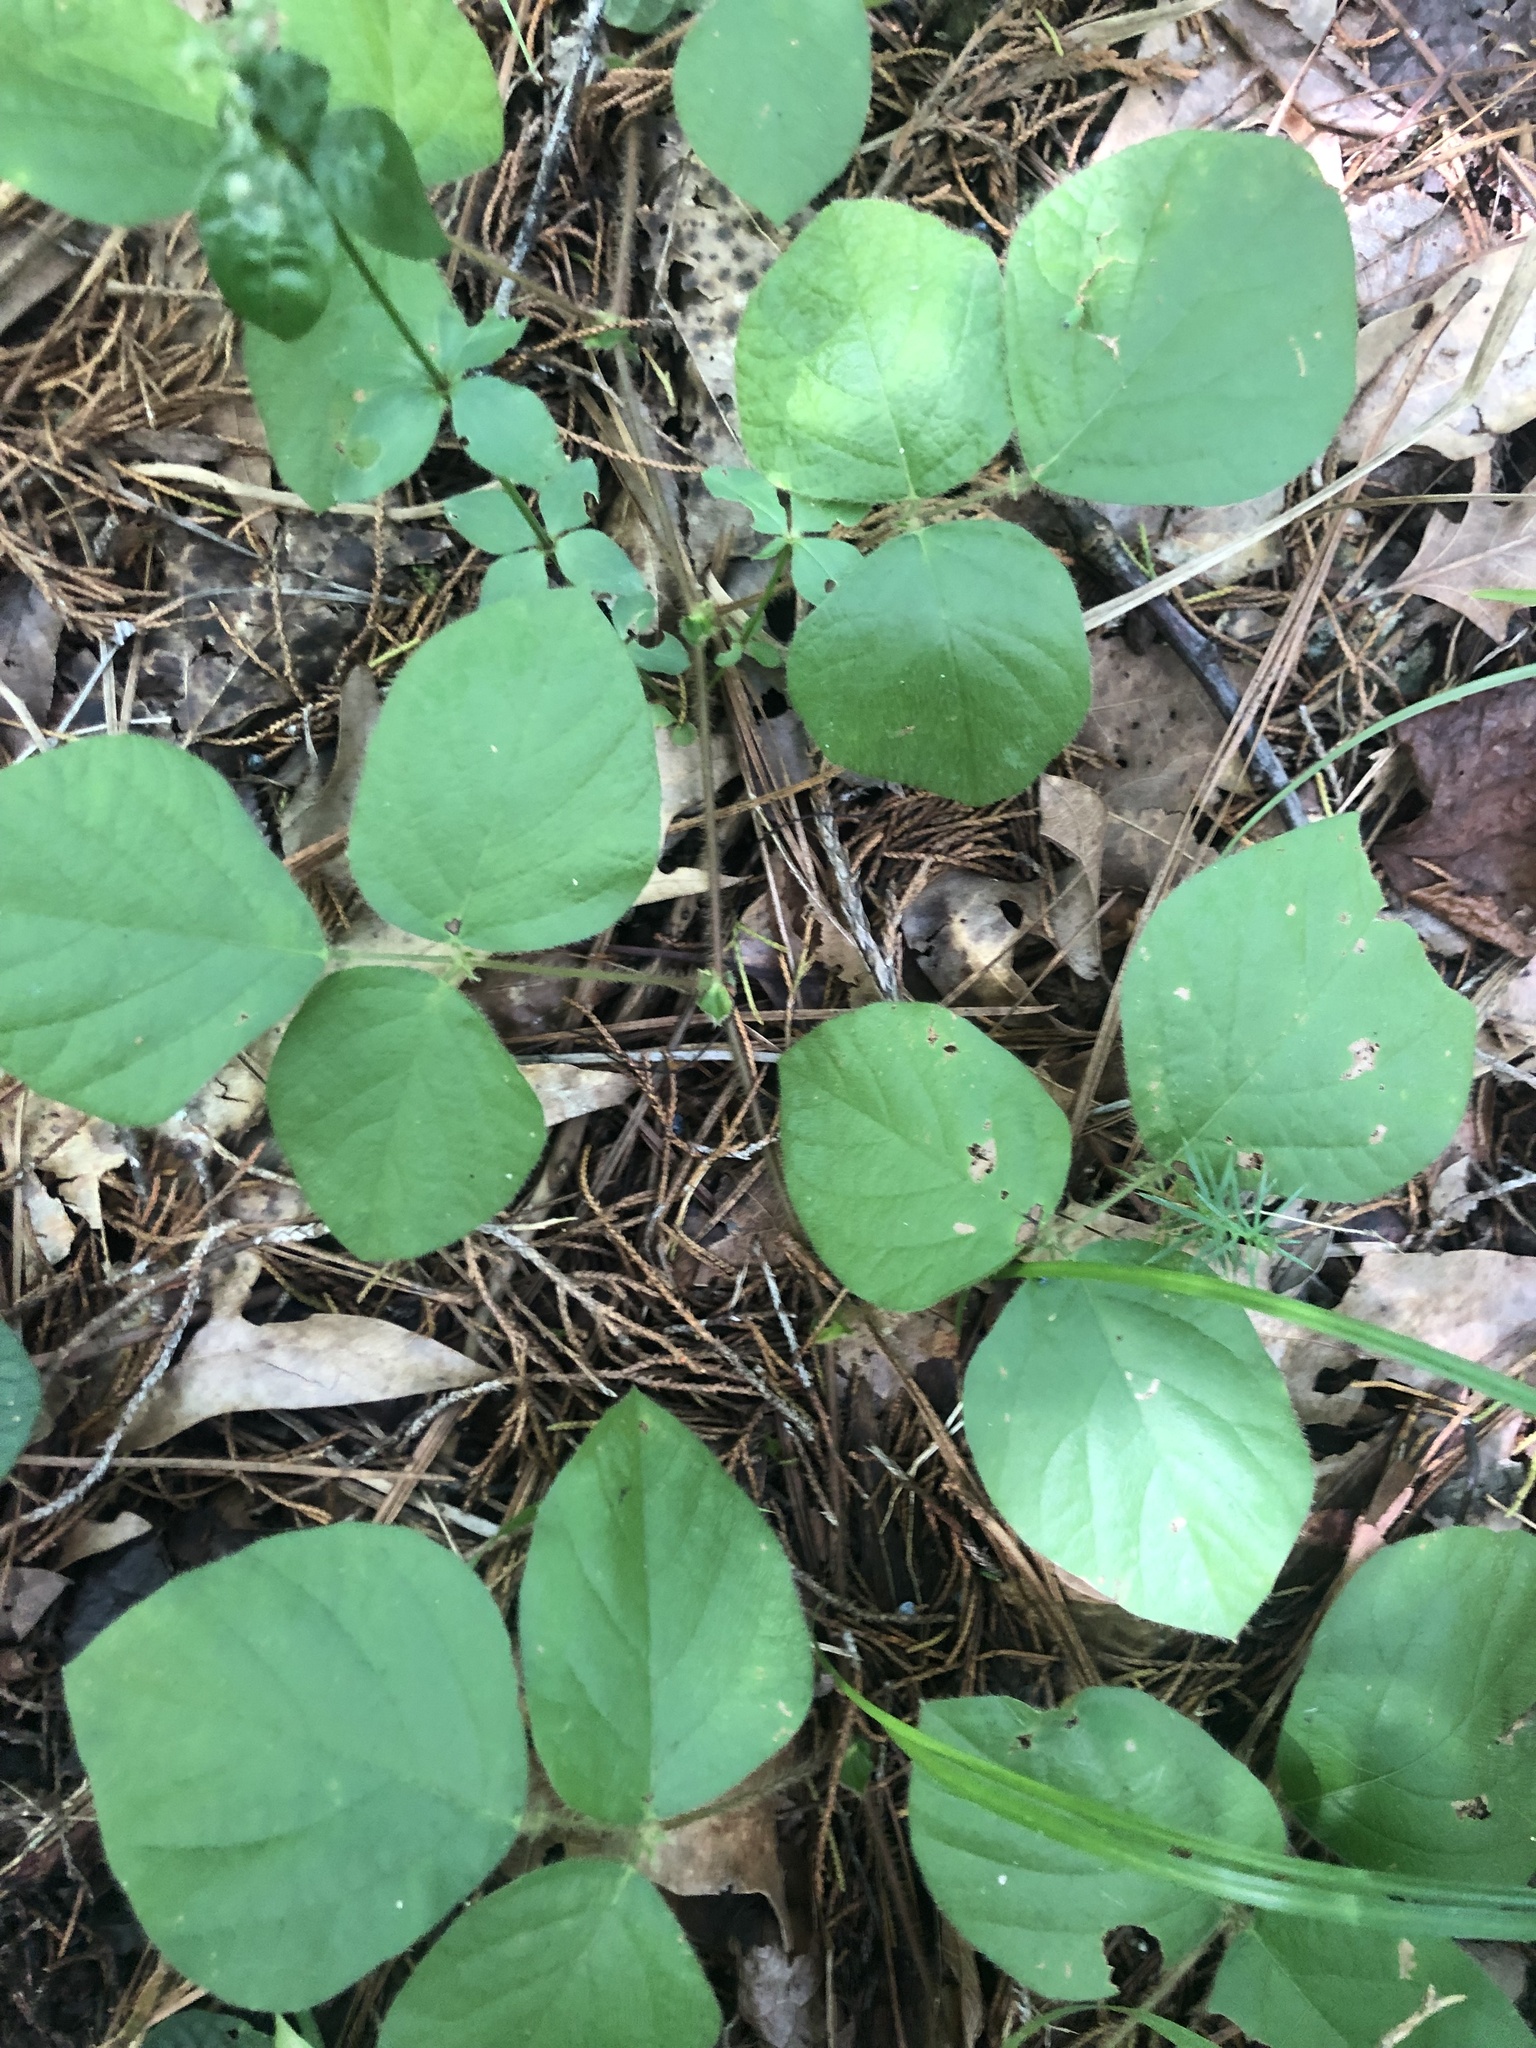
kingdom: Plantae
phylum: Tracheophyta
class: Magnoliopsida
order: Fabales
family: Fabaceae
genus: Desmodium
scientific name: Desmodium rotundifolium
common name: Dollarleaf
